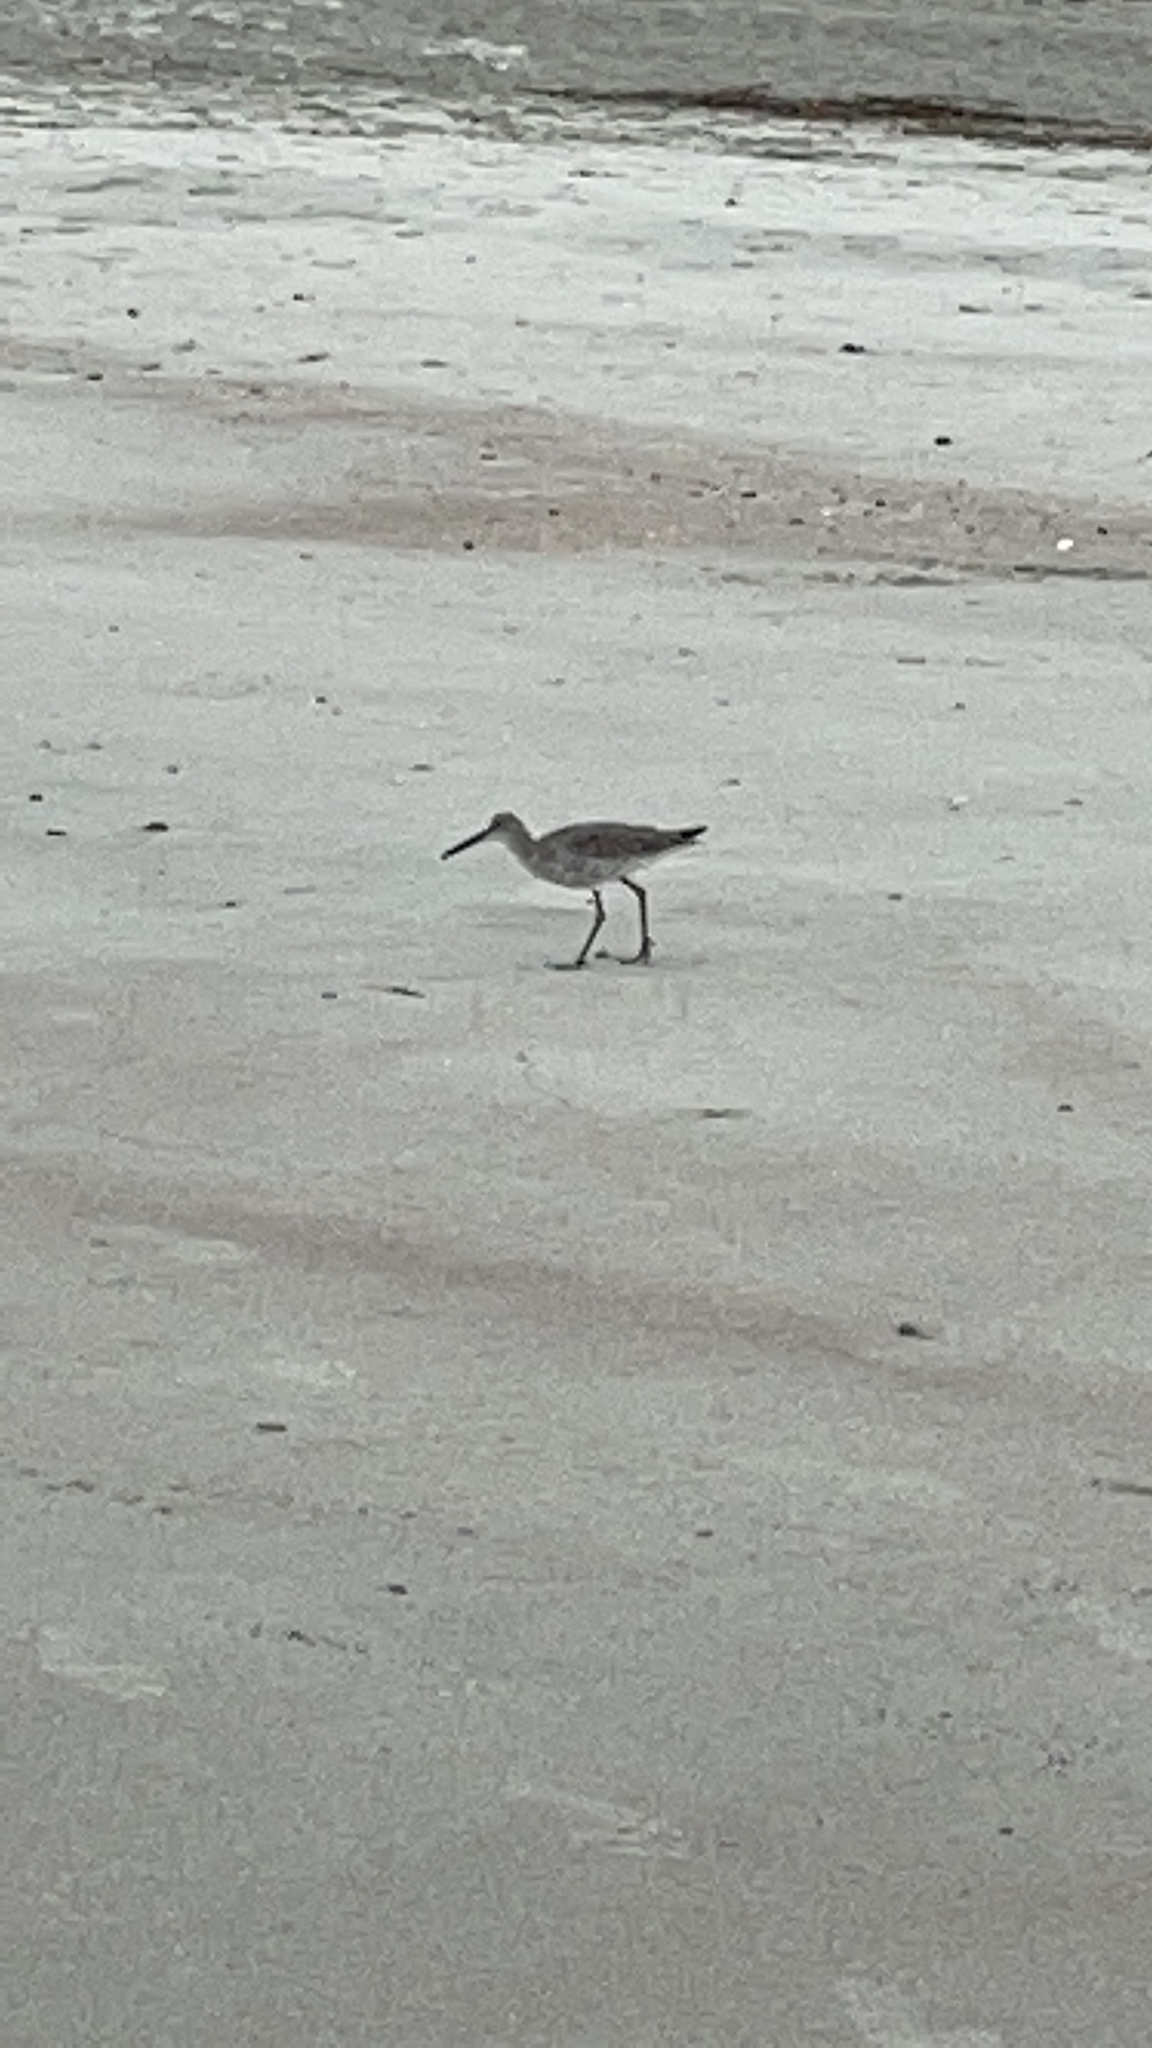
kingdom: Animalia
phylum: Chordata
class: Aves
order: Charadriiformes
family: Scolopacidae
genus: Tringa
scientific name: Tringa semipalmata
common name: Willet
